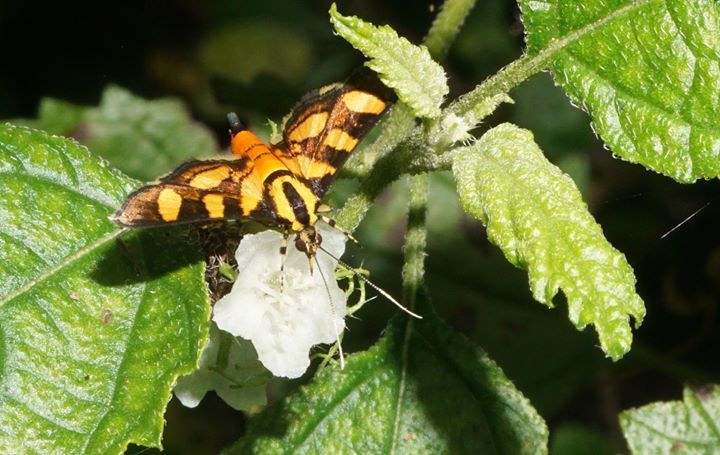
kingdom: Animalia
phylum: Arthropoda
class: Insecta
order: Lepidoptera
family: Crambidae
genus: Syngamia
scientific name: Syngamia florella
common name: Orange-spotted flower moth
